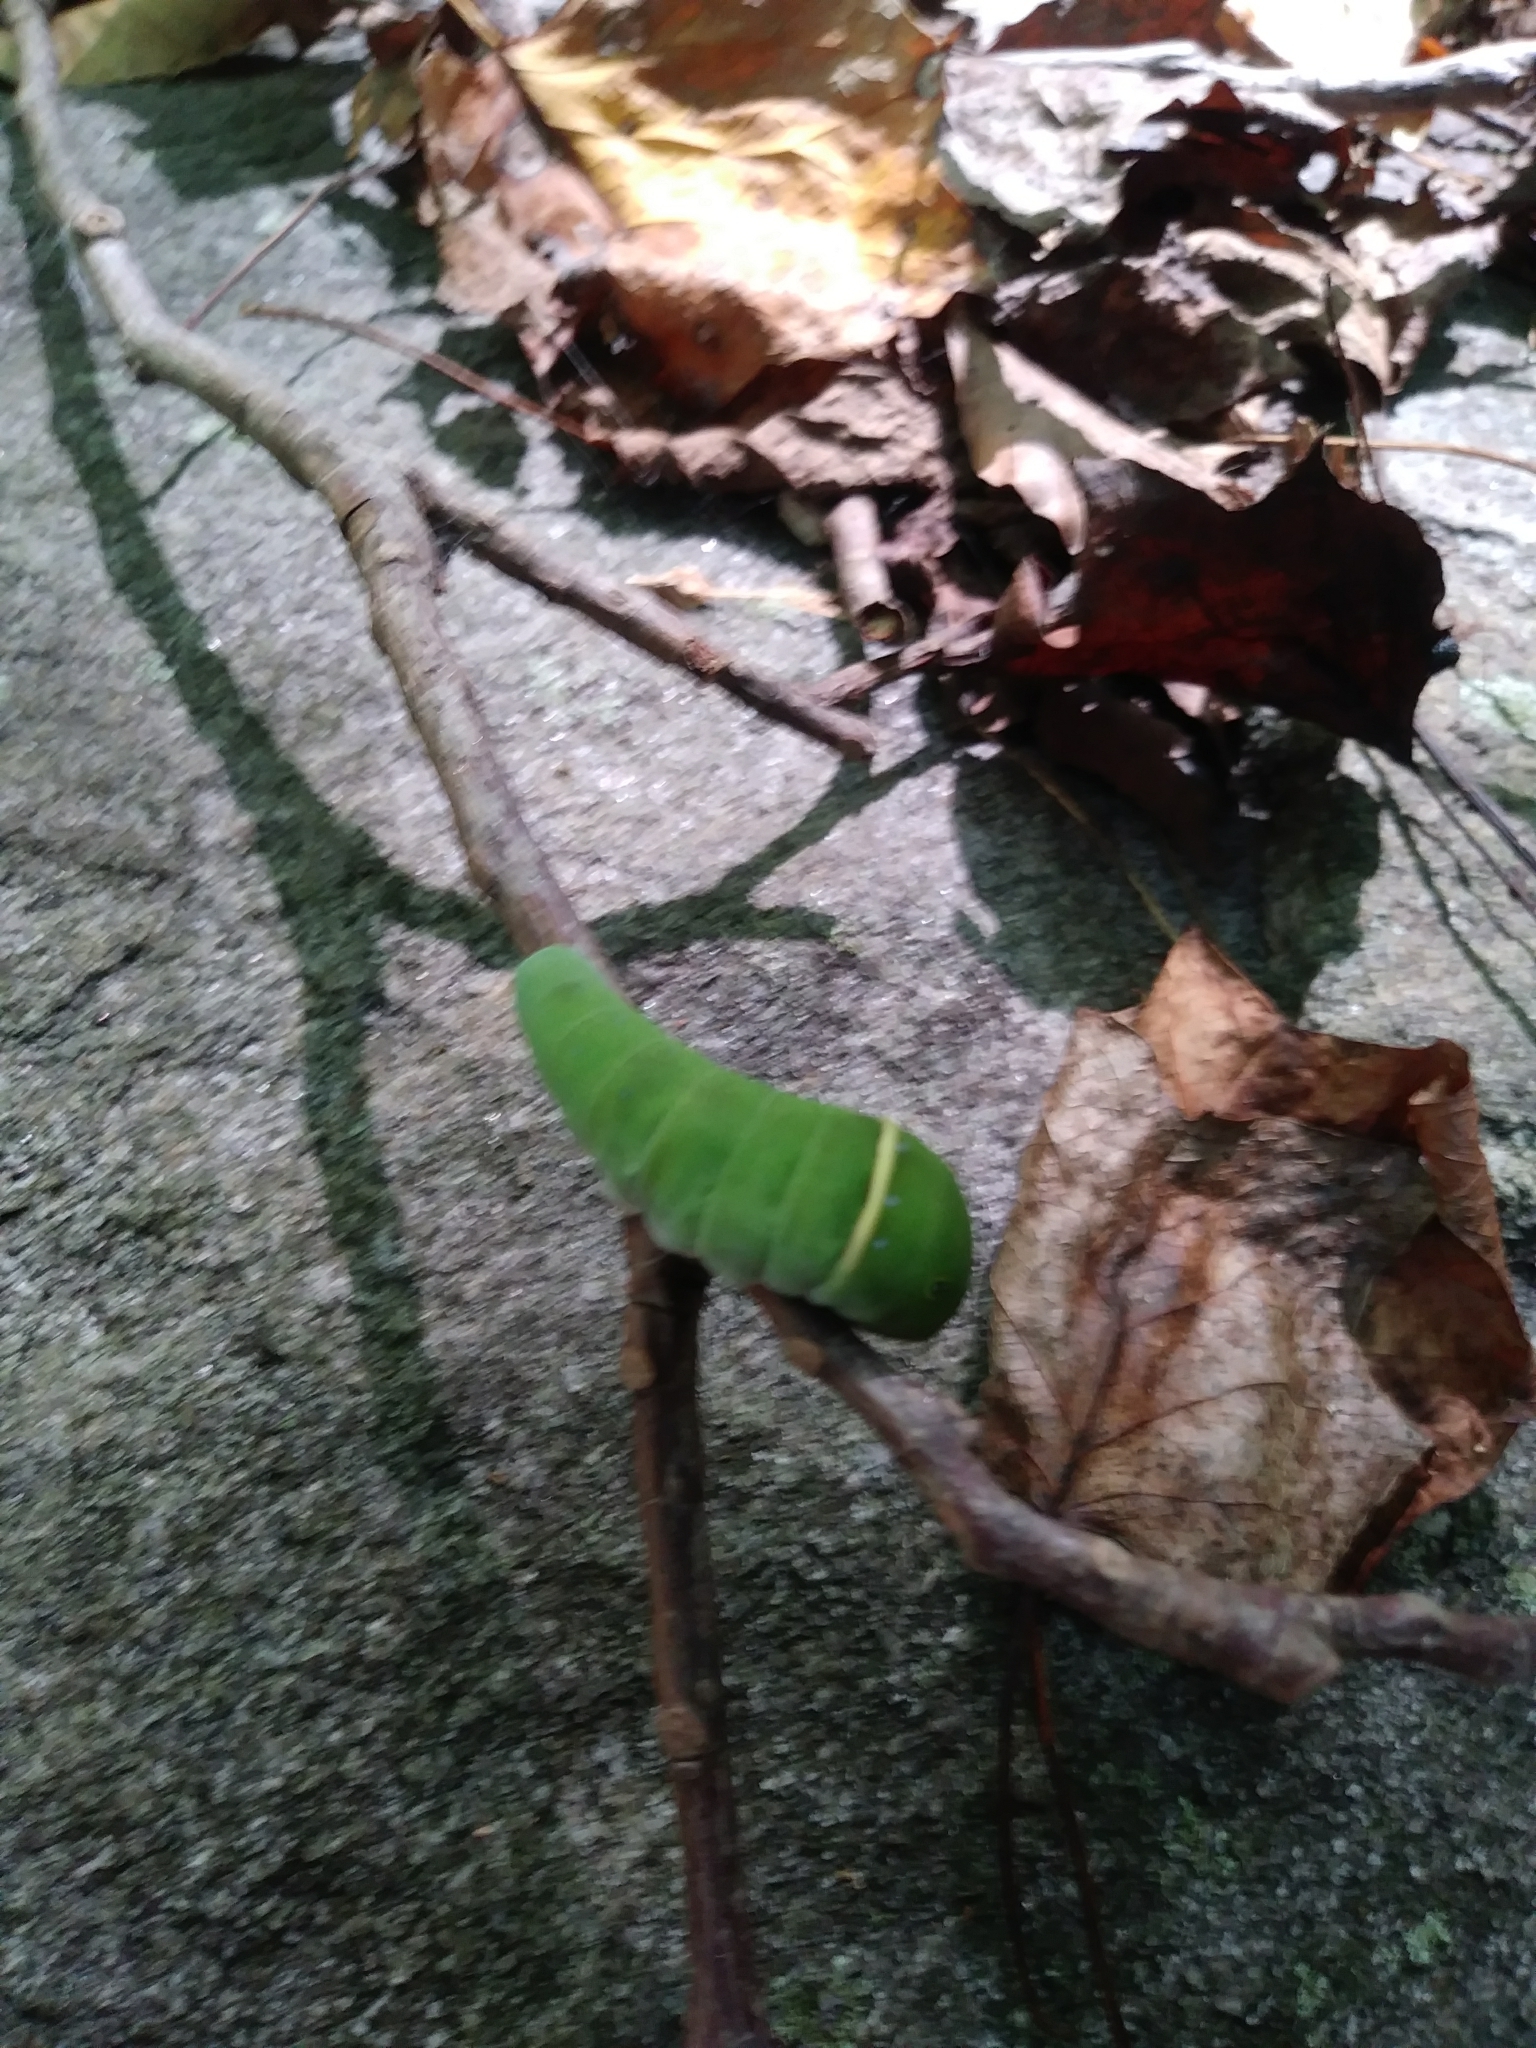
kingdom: Animalia
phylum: Arthropoda
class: Insecta
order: Lepidoptera
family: Papilionidae
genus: Papilio
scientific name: Papilio glaucus
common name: Tiger swallowtail
